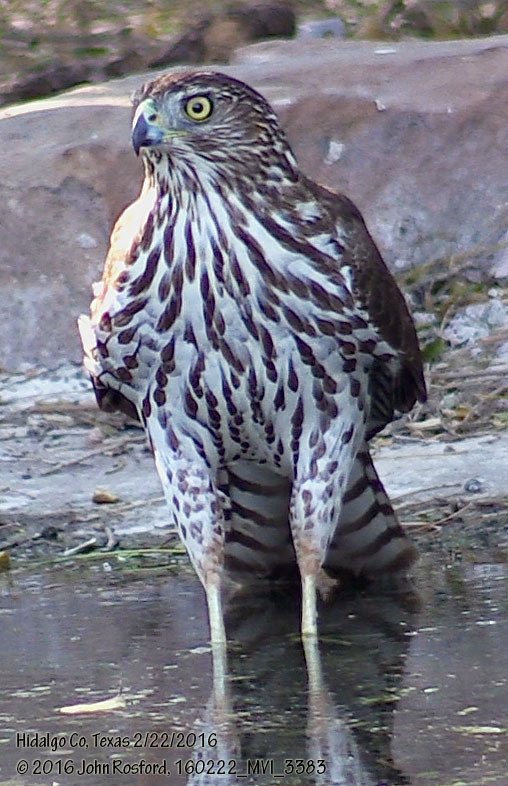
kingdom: Animalia
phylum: Chordata
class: Aves
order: Accipitriformes
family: Accipitridae
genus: Accipiter
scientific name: Accipiter cooperii
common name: Cooper's hawk
